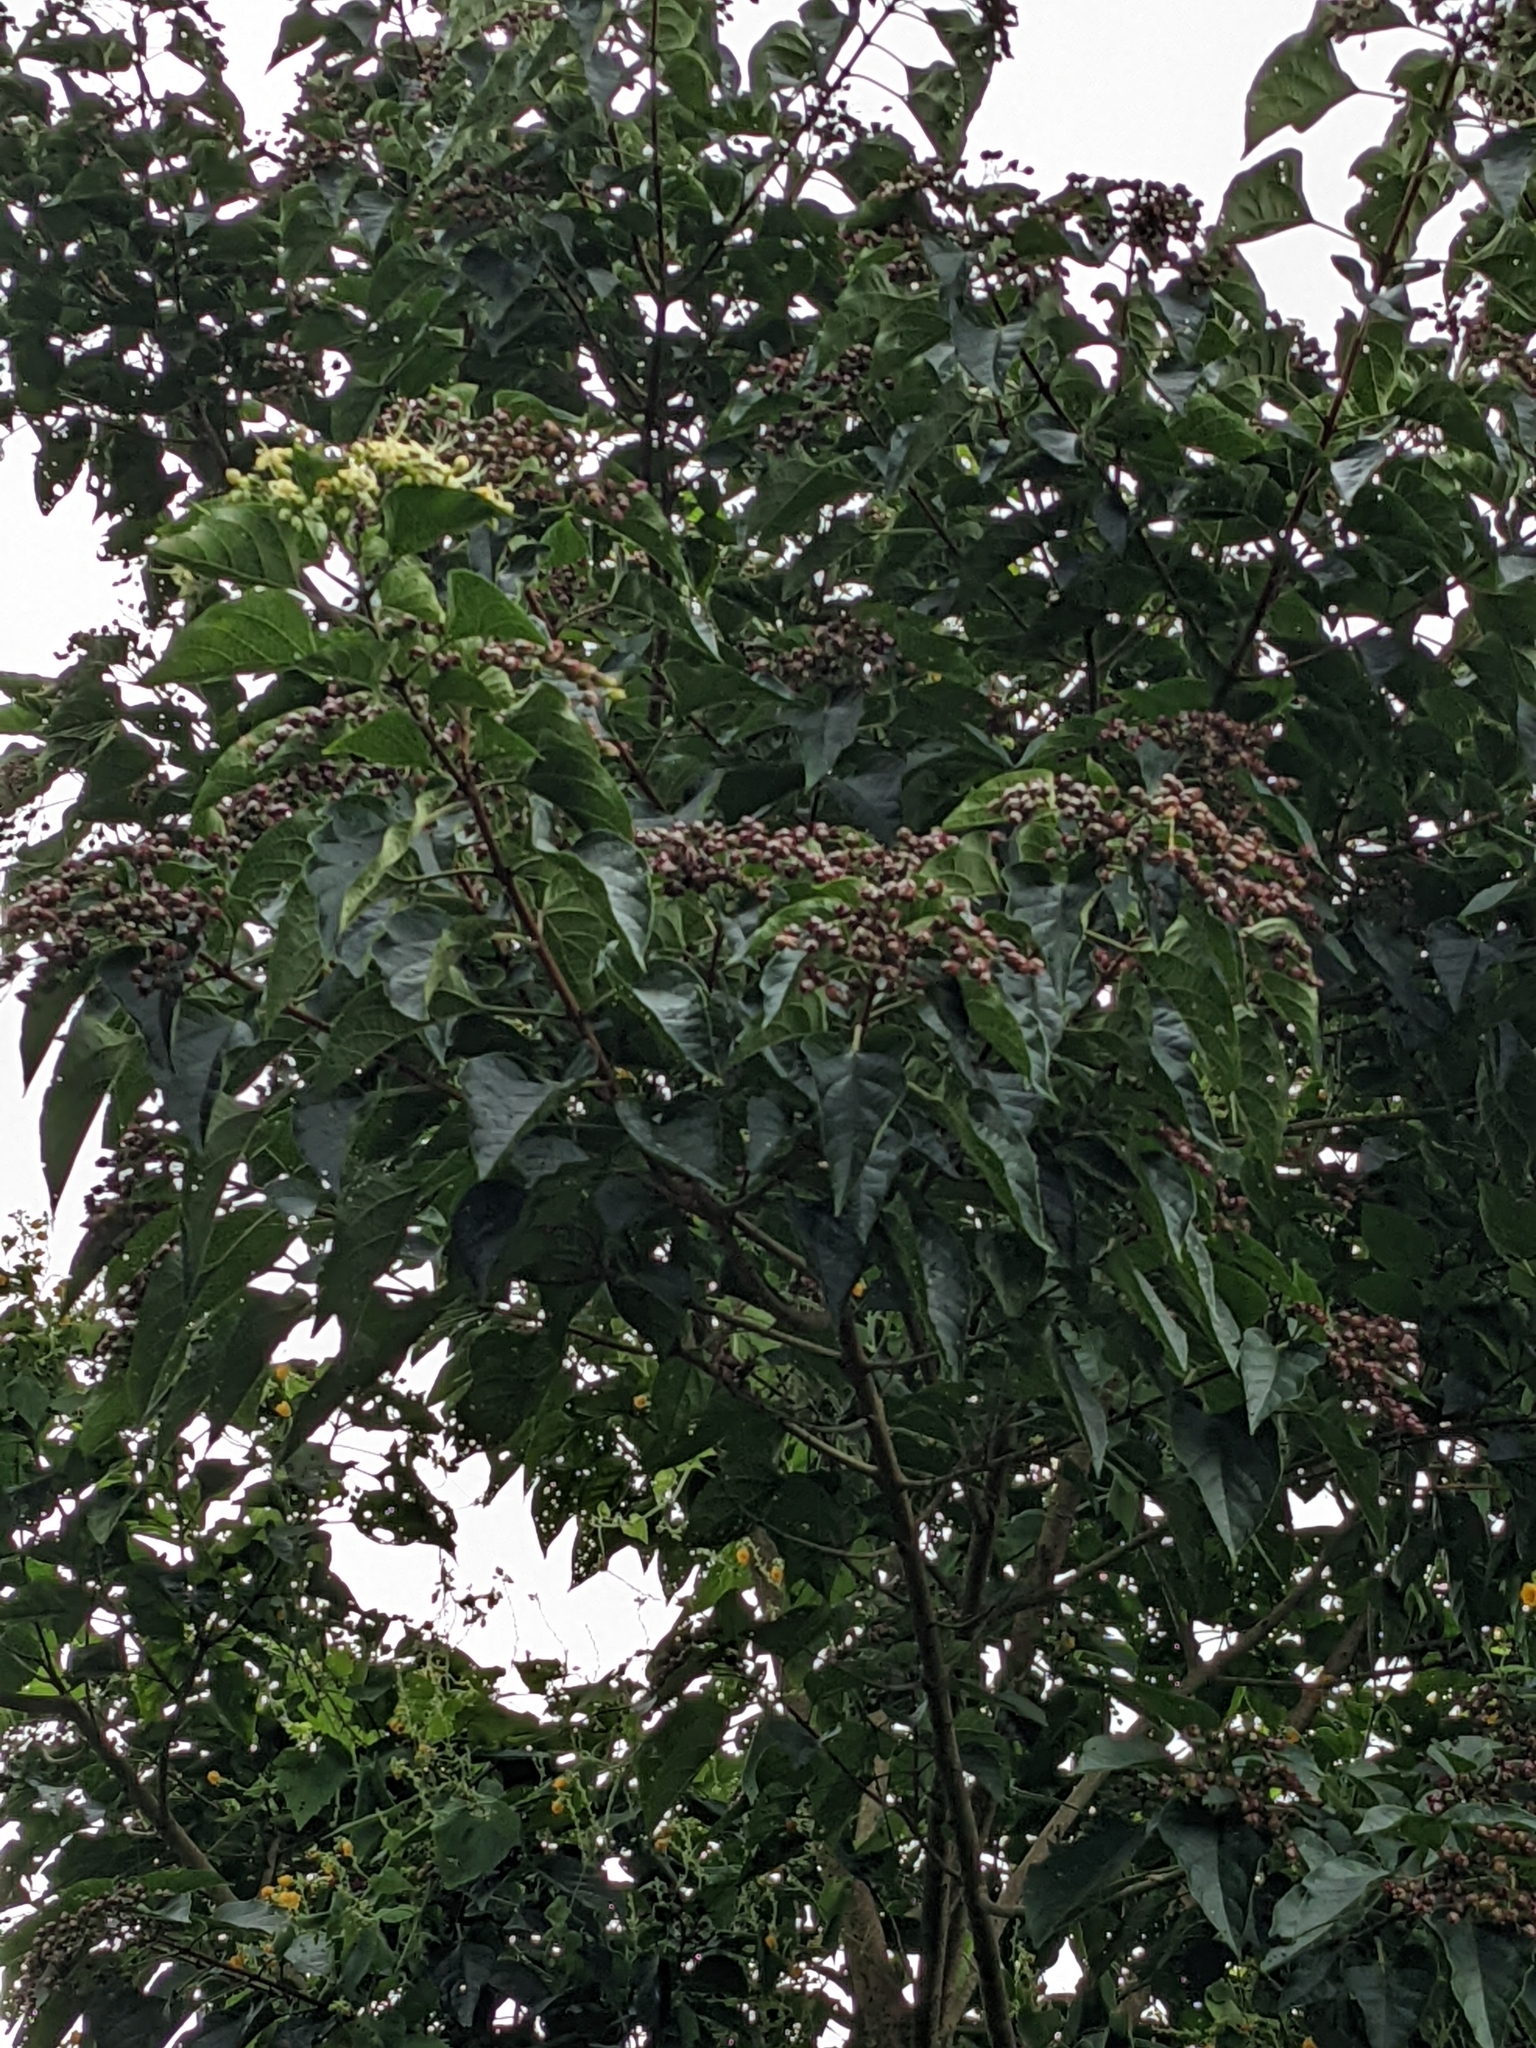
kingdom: Plantae
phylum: Tracheophyta
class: Magnoliopsida
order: Lamiales
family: Lamiaceae
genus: Clerodendrum
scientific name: Clerodendrum trichotomum
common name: Harlequin glorybower
